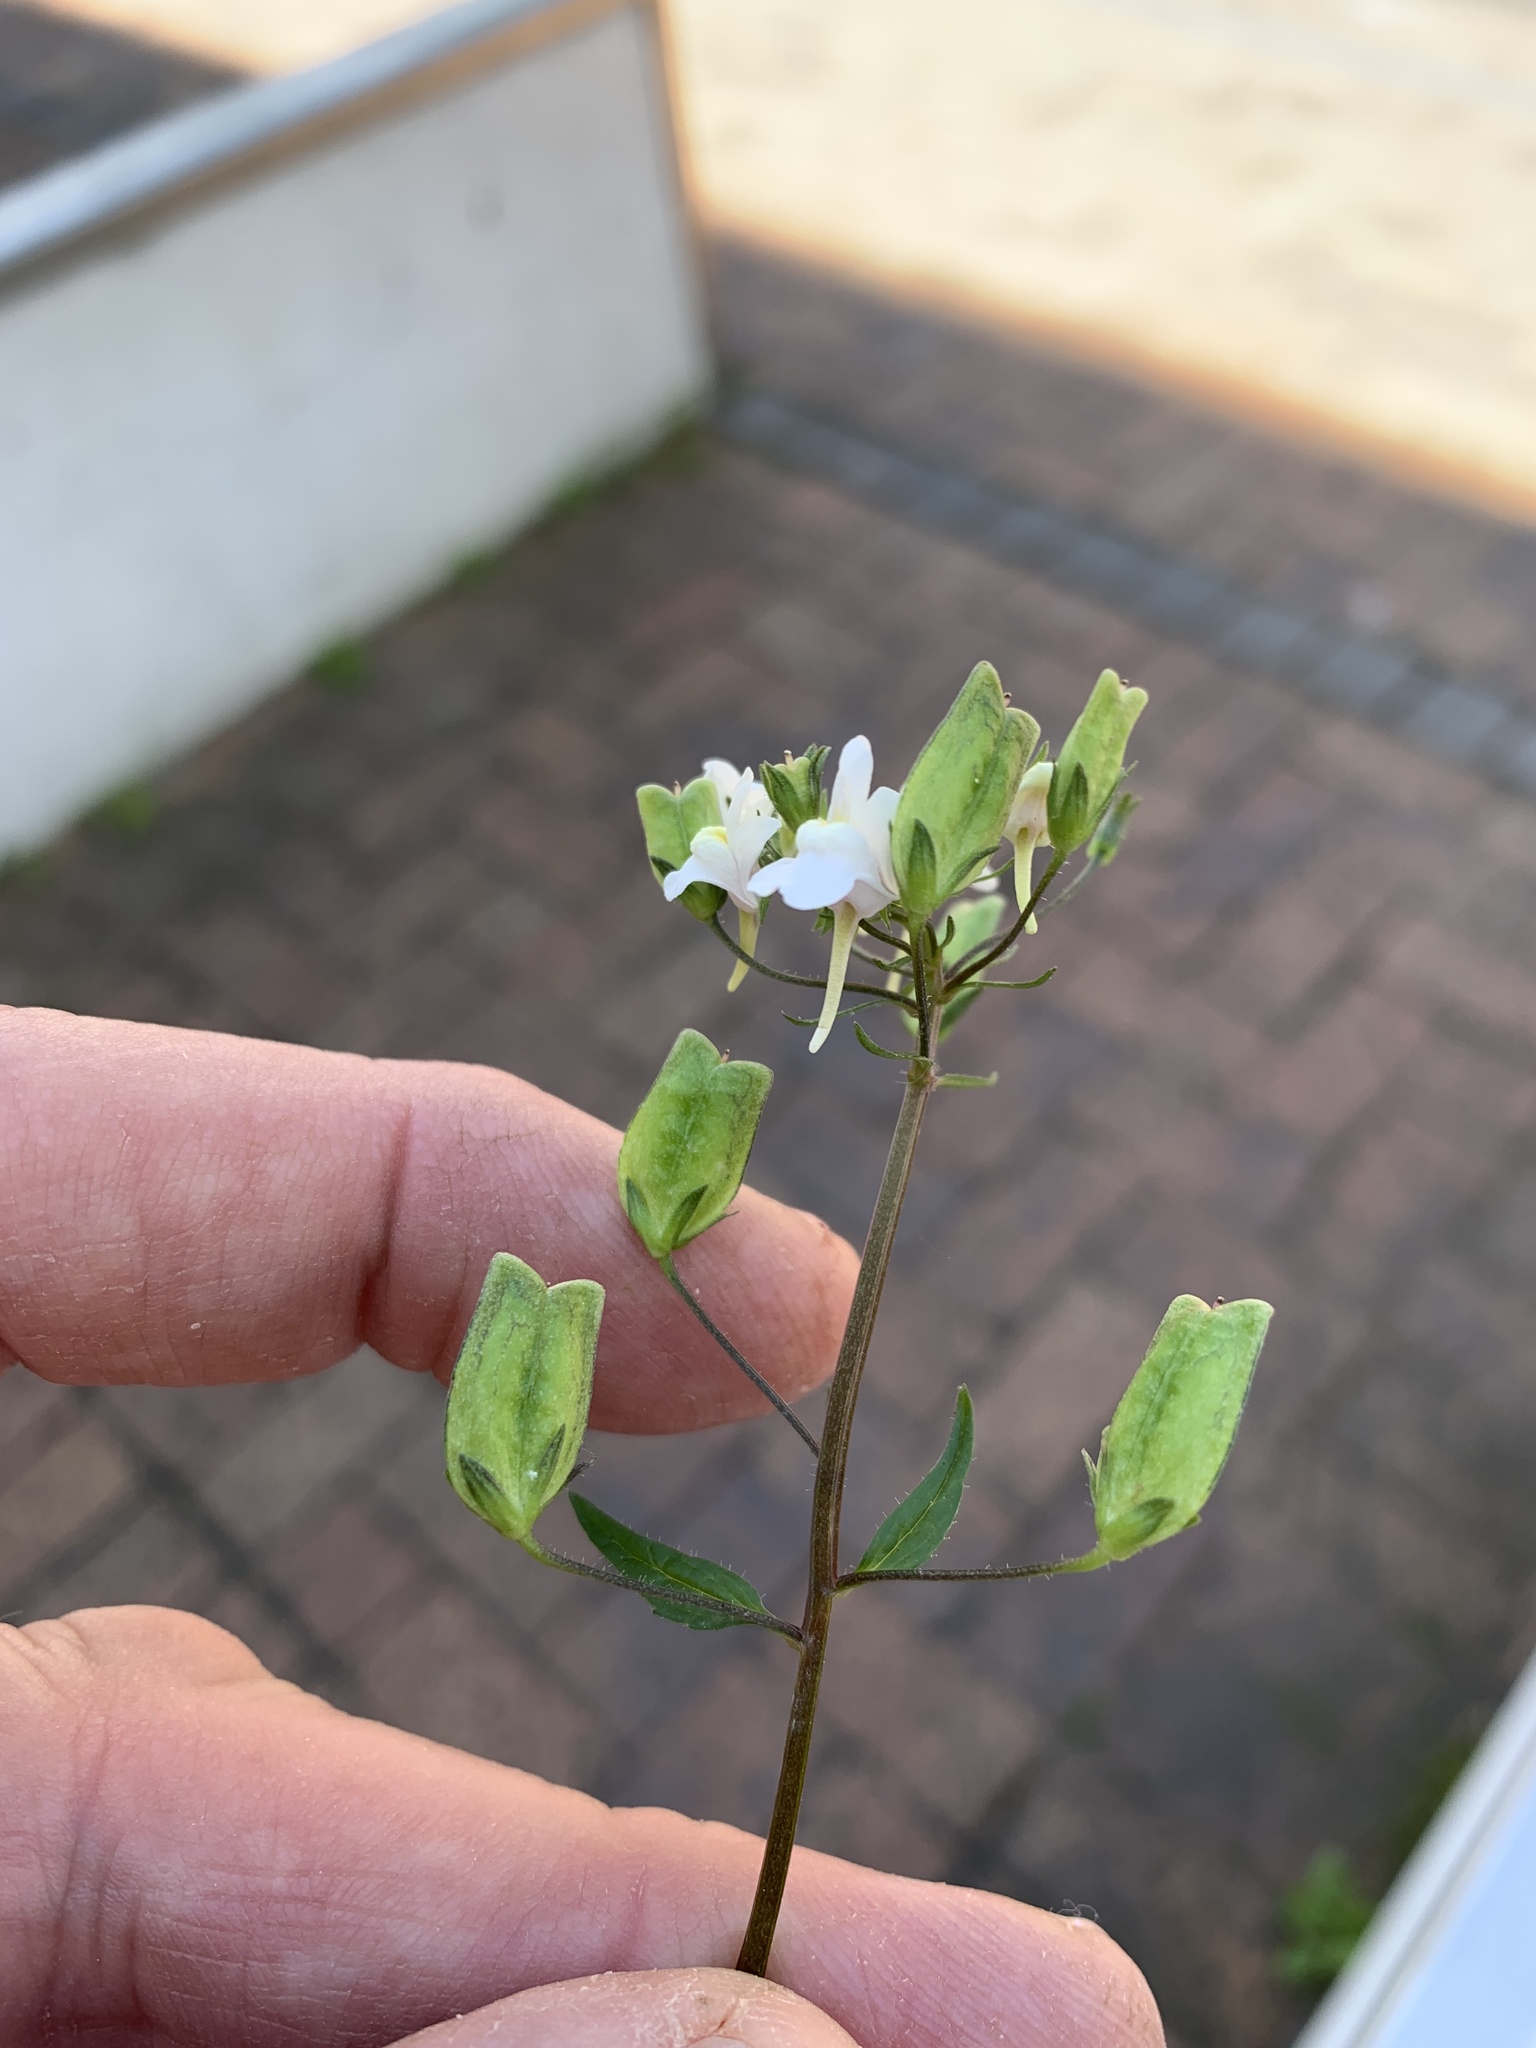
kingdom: Plantae
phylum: Tracheophyta
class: Magnoliopsida
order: Lamiales
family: Scrophulariaceae
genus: Nemesia
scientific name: Nemesia floribunda
